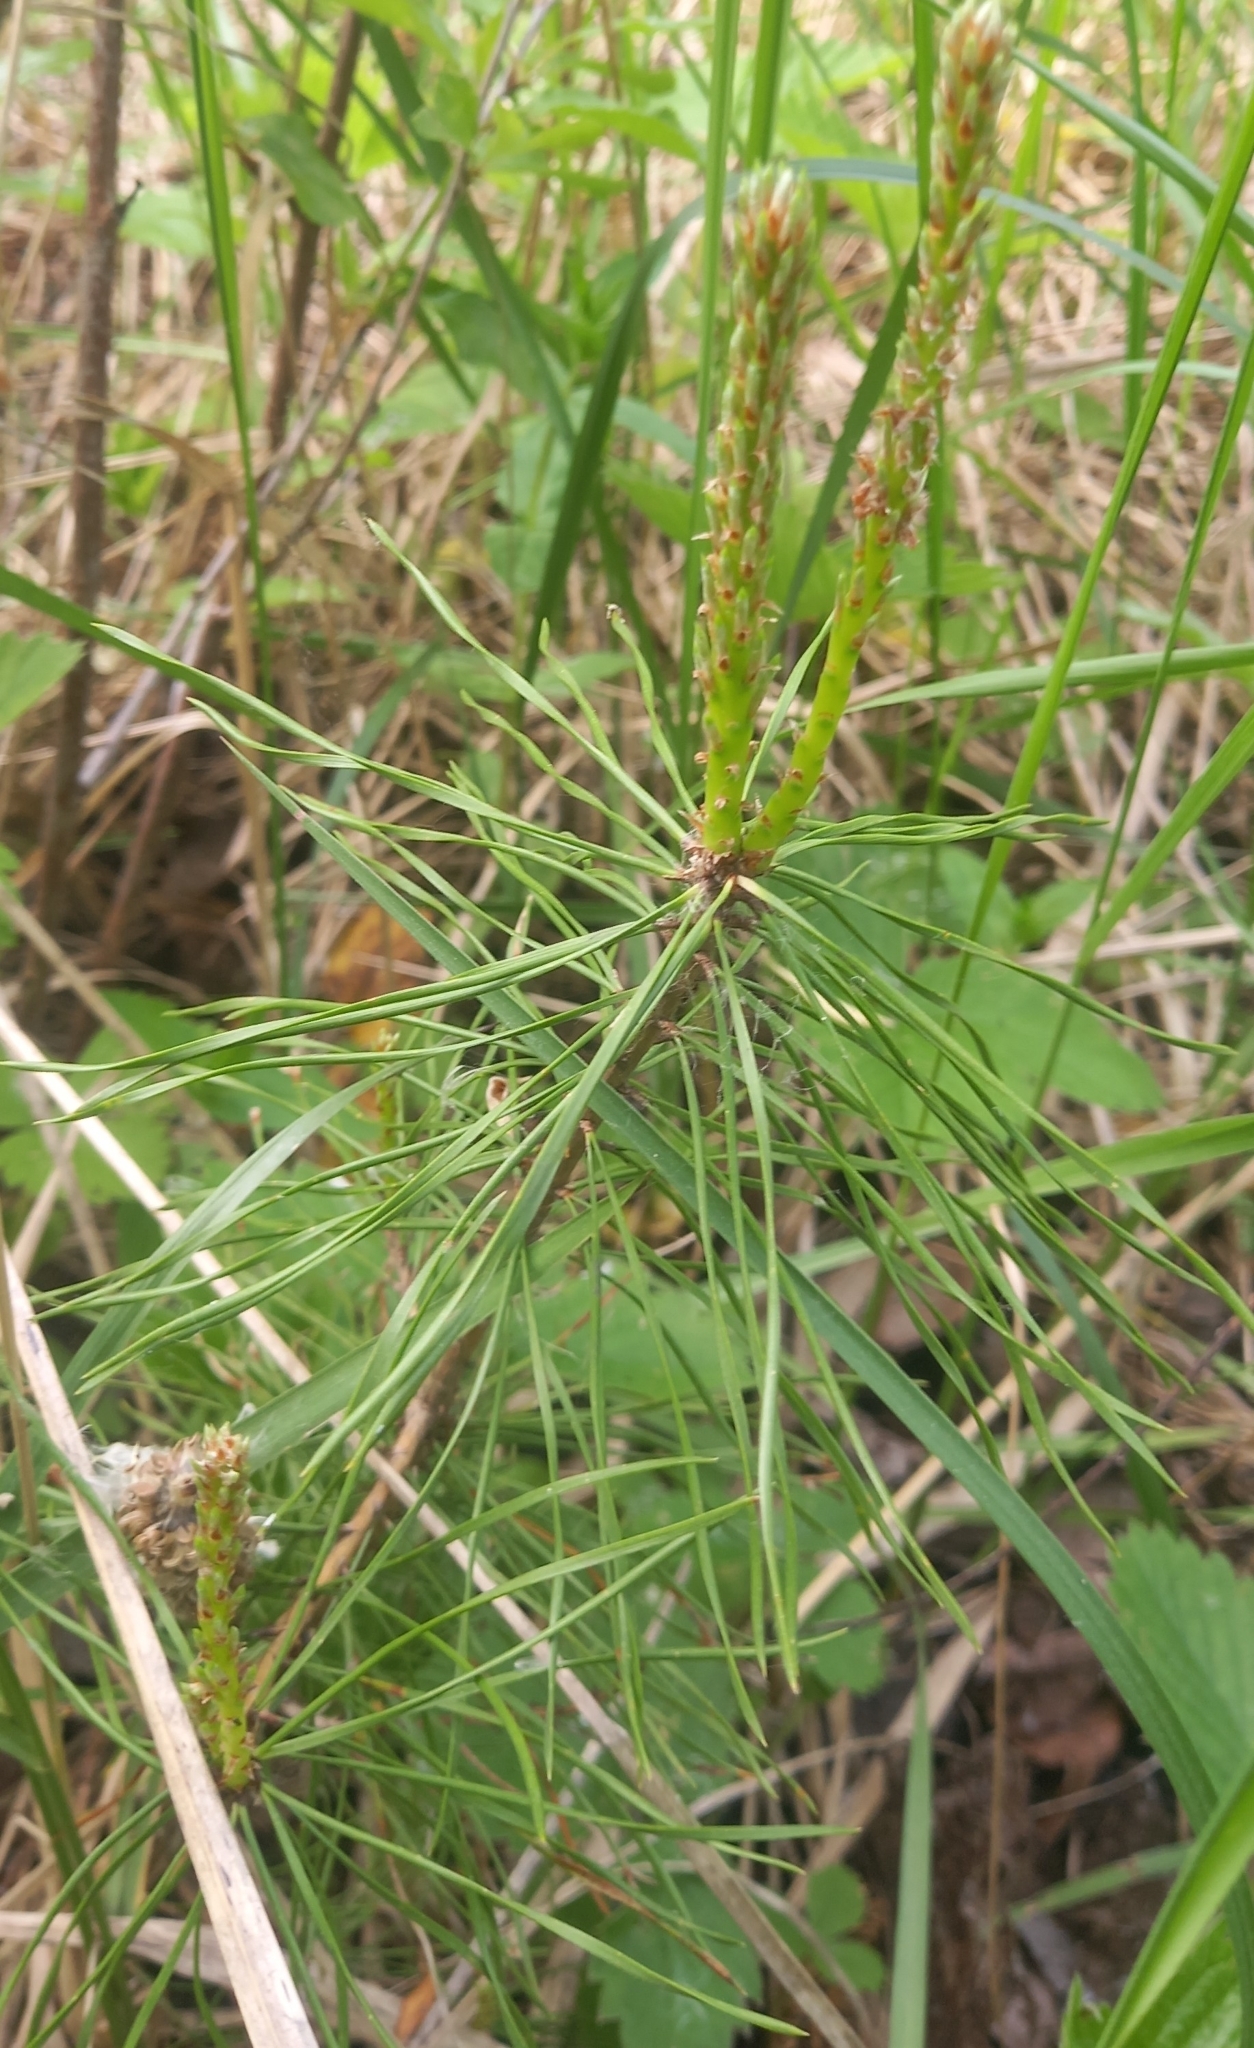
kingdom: Plantae
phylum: Tracheophyta
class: Pinopsida
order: Pinales
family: Pinaceae
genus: Pinus
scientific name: Pinus sylvestris
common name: Scots pine
